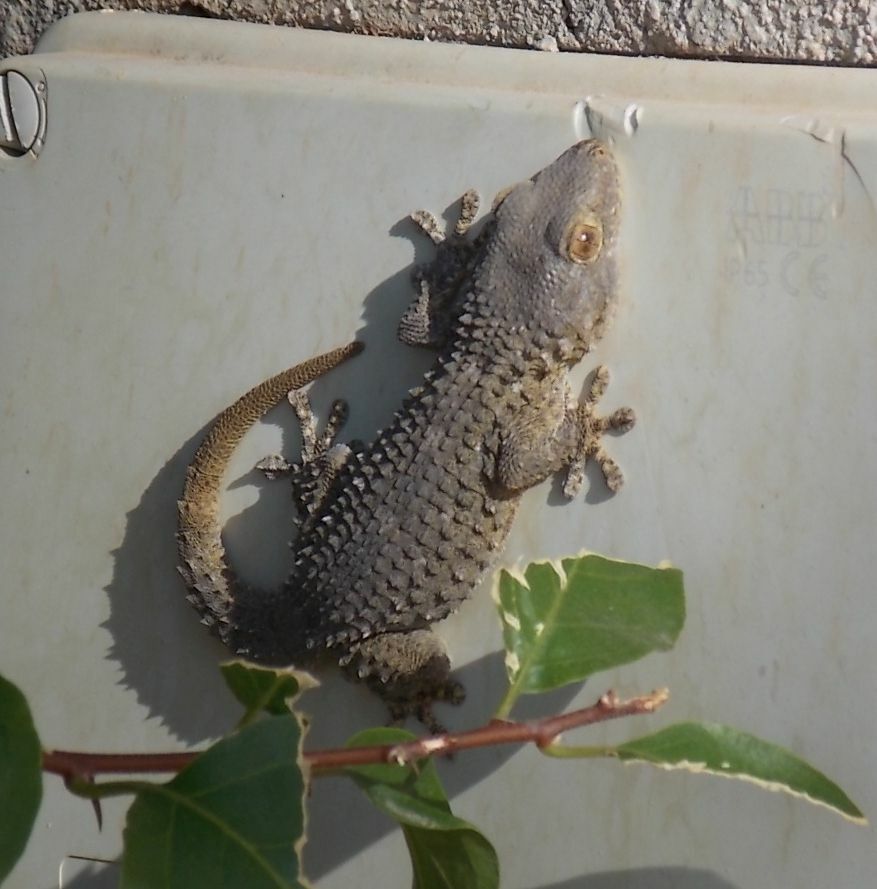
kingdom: Animalia
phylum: Chordata
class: Squamata
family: Phyllodactylidae
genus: Tarentola
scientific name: Tarentola mauritanica
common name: Moorish gecko
